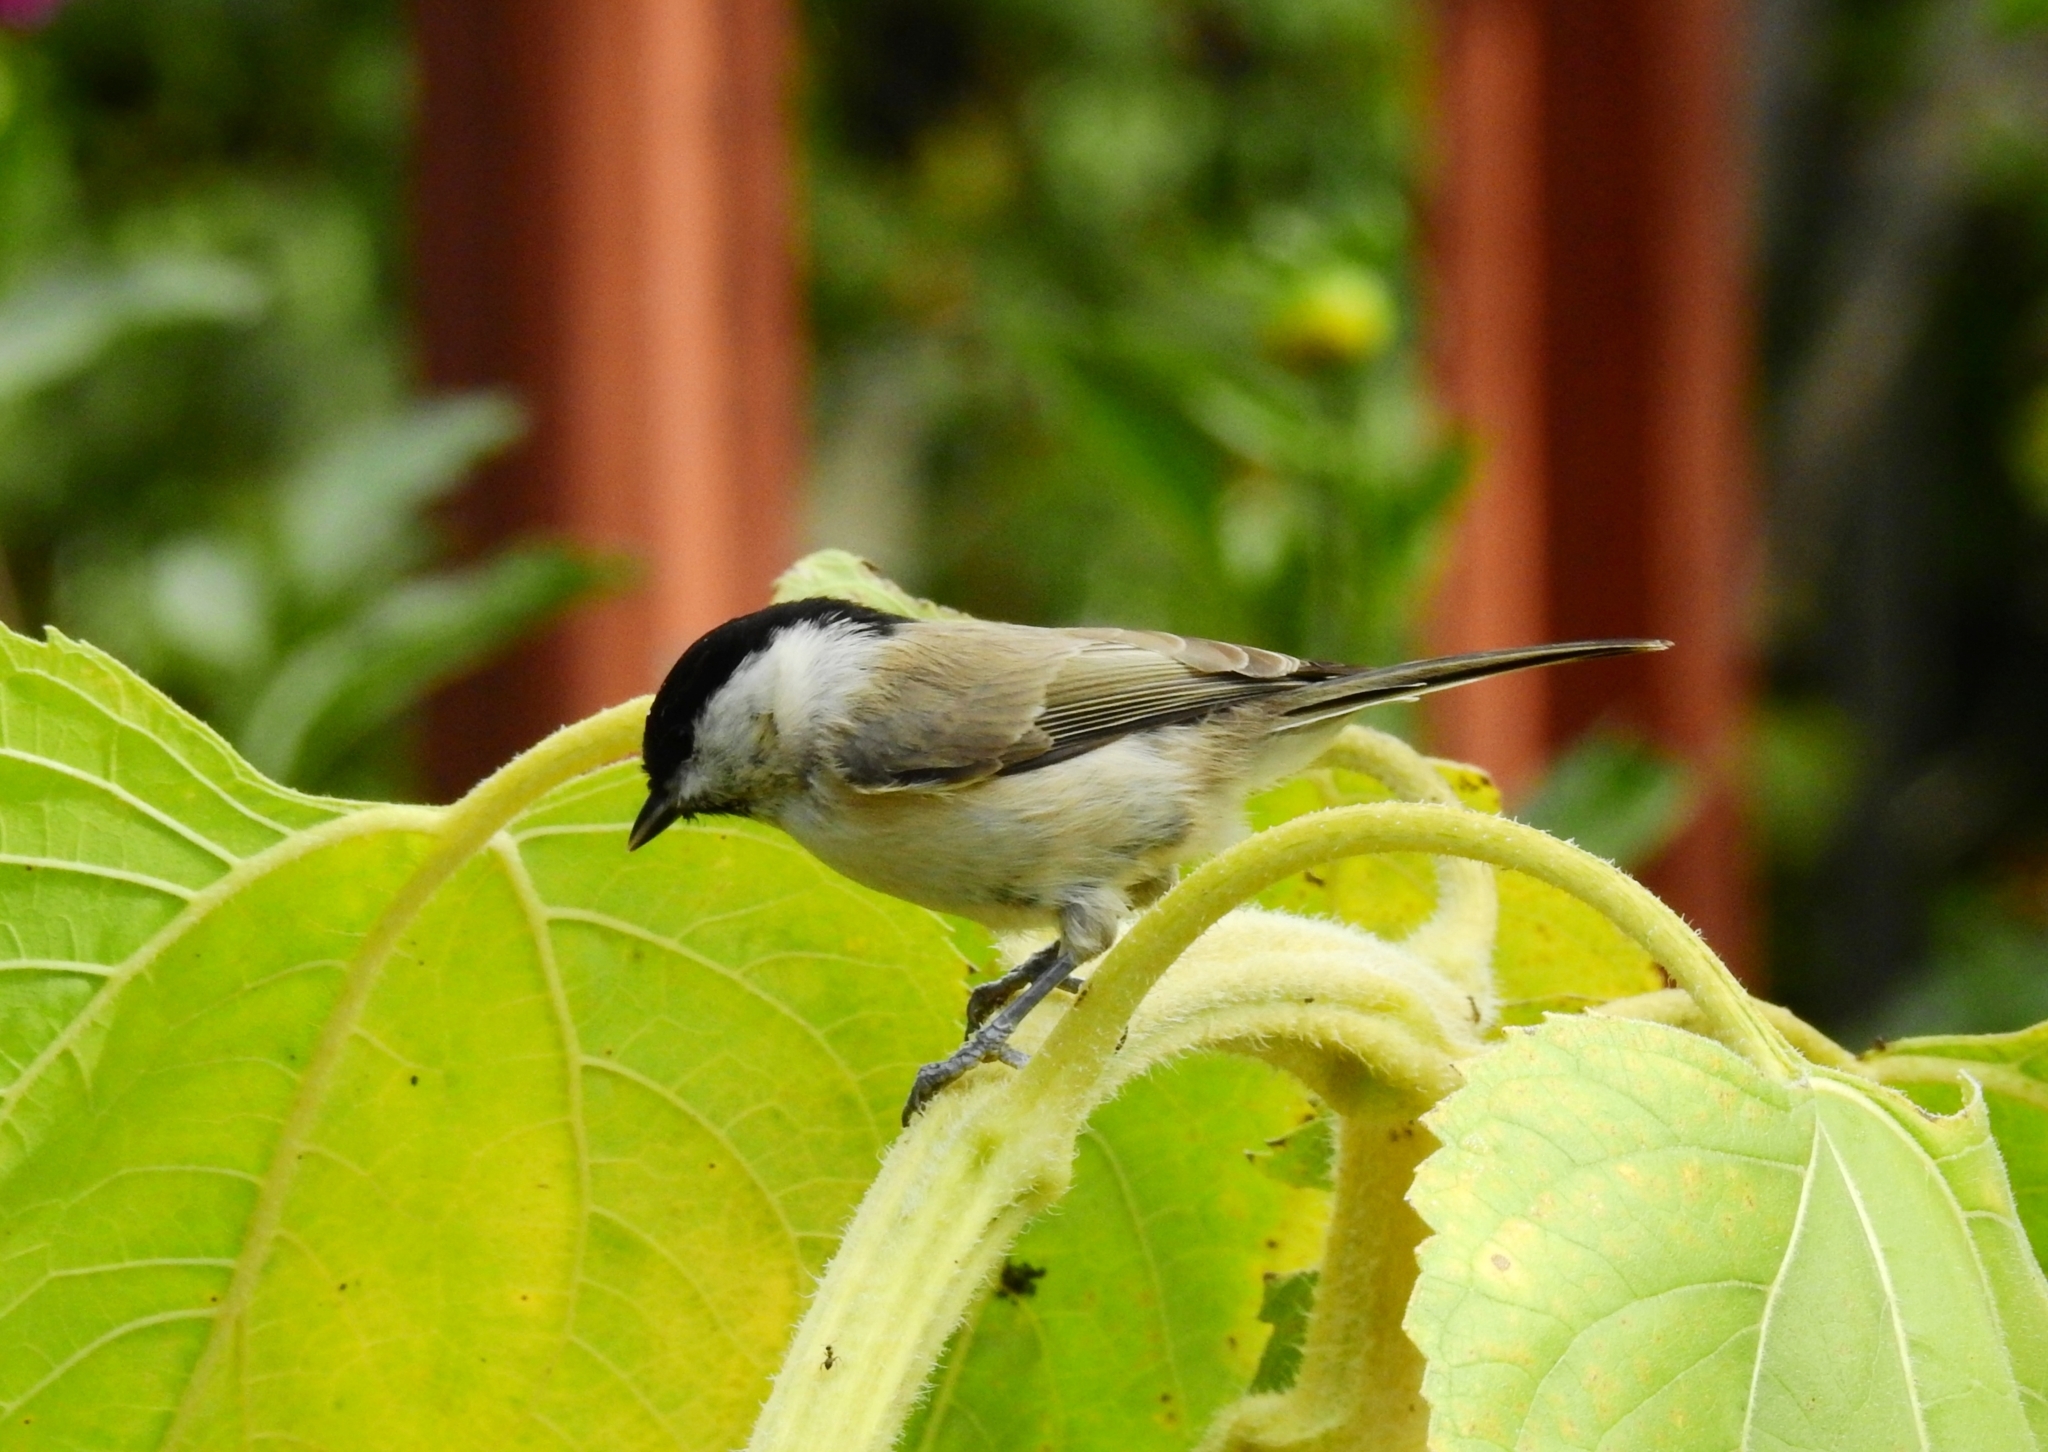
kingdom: Animalia
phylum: Chordata
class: Aves
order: Passeriformes
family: Paridae
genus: Poecile
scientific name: Poecile montanus
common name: Willow tit
